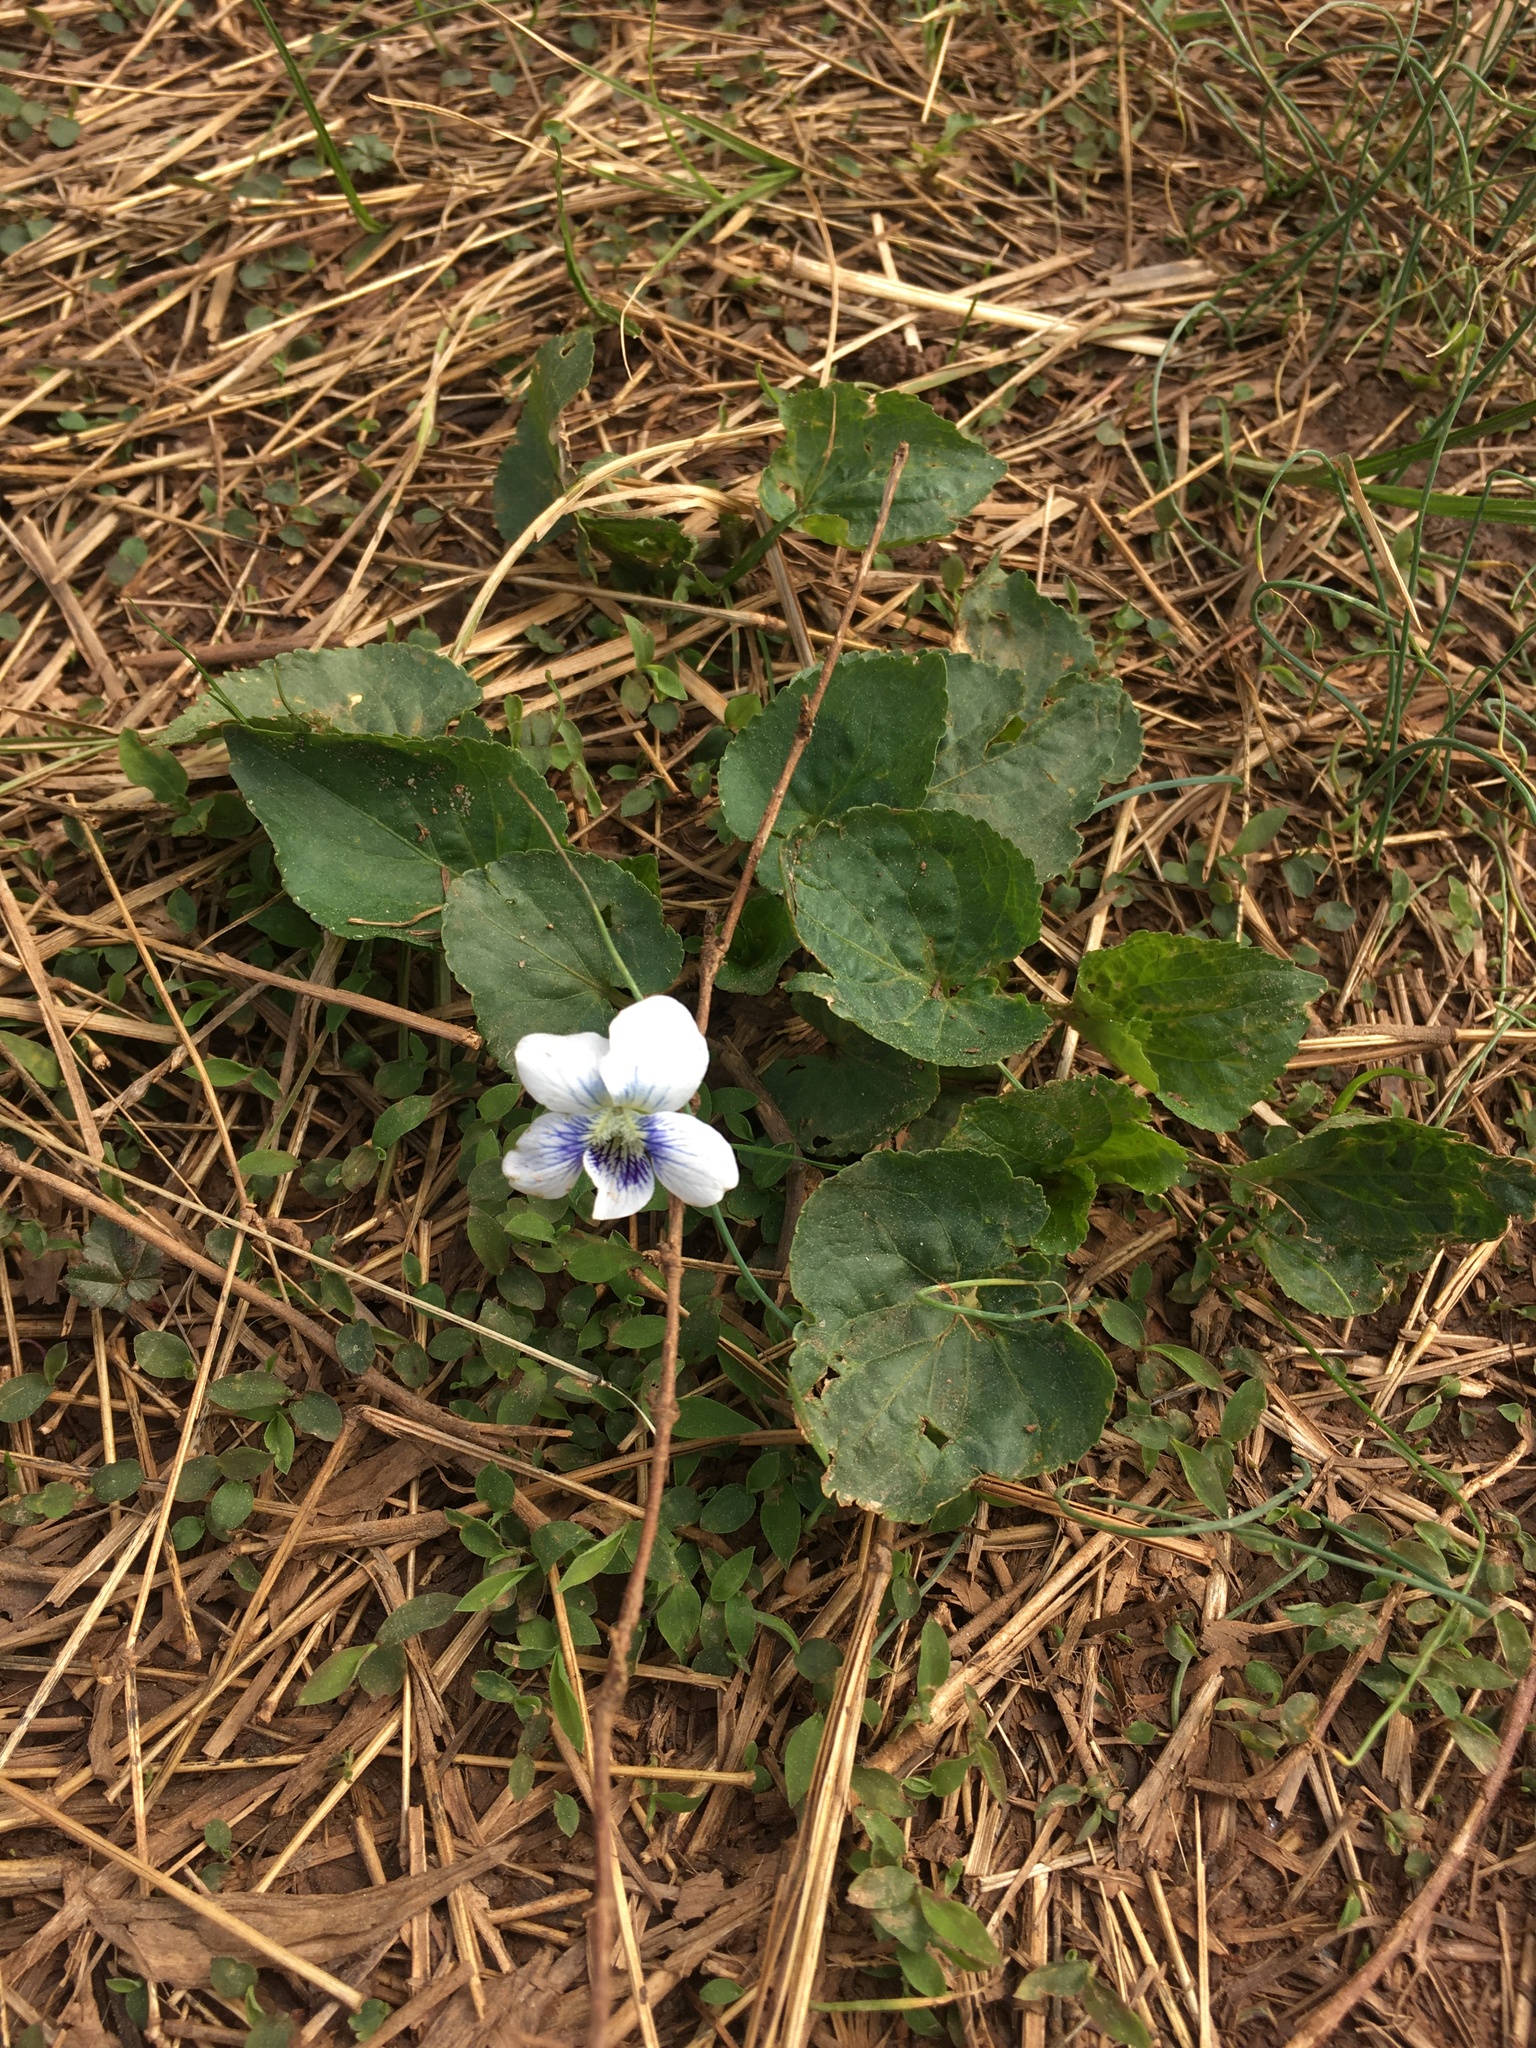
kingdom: Plantae
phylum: Tracheophyta
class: Magnoliopsida
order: Malpighiales
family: Violaceae
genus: Viola
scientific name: Viola sororia
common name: Dooryard violet
